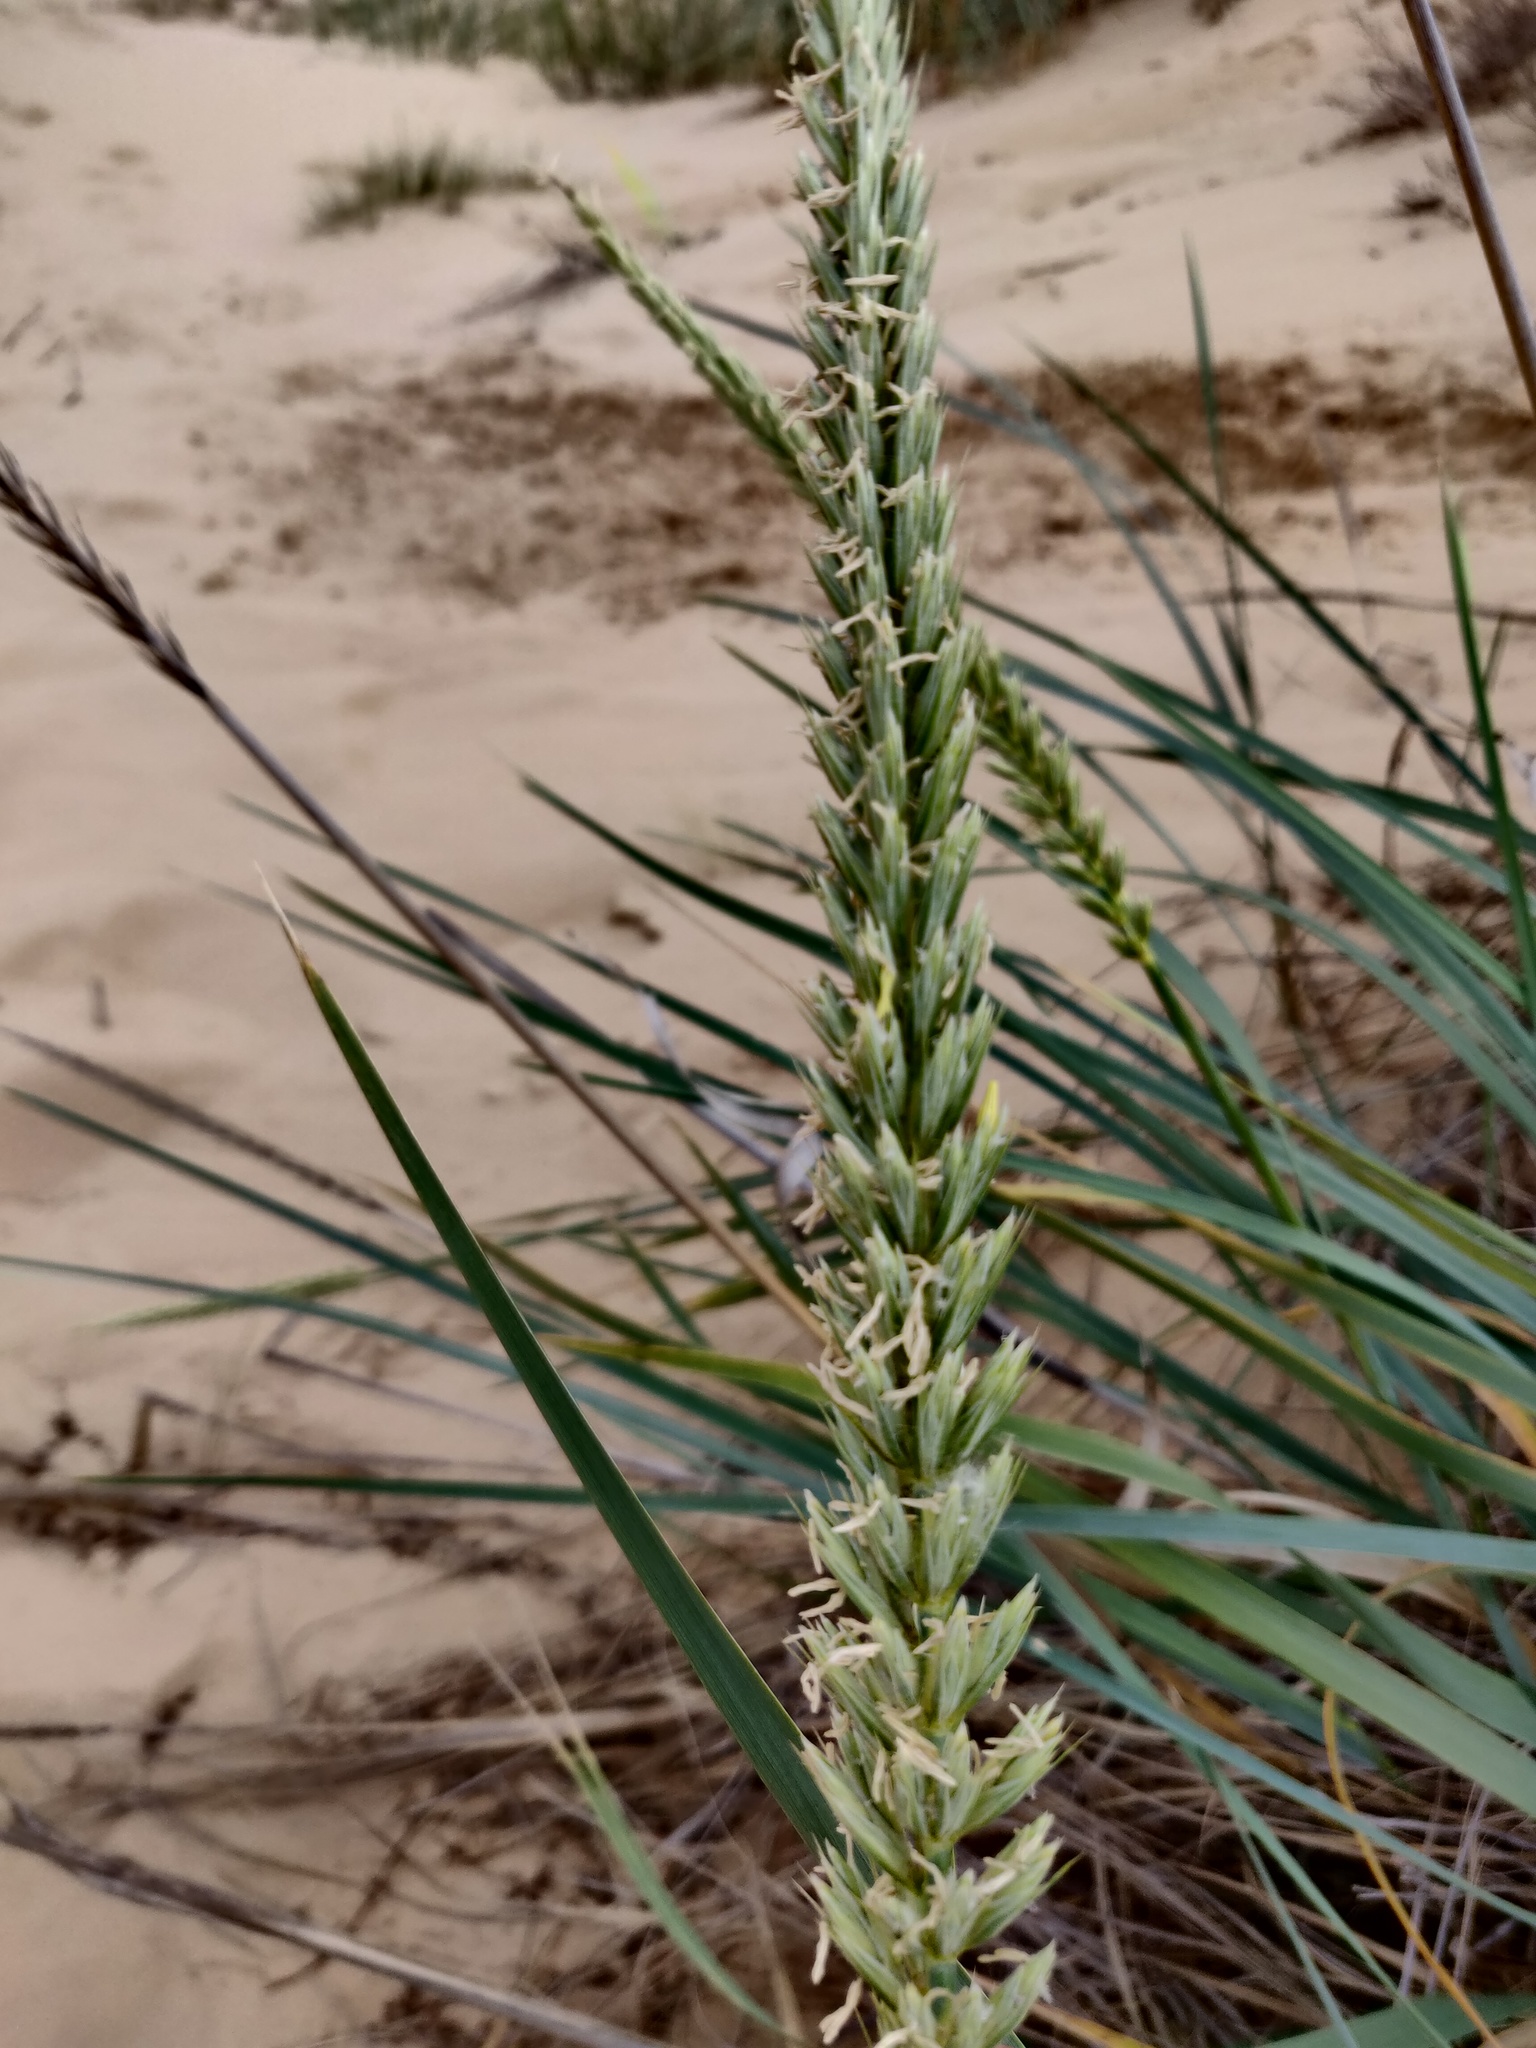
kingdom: Plantae
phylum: Tracheophyta
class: Liliopsida
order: Poales
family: Poaceae
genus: Leymus
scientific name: Leymus racemosus
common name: Mammoth wildrye
